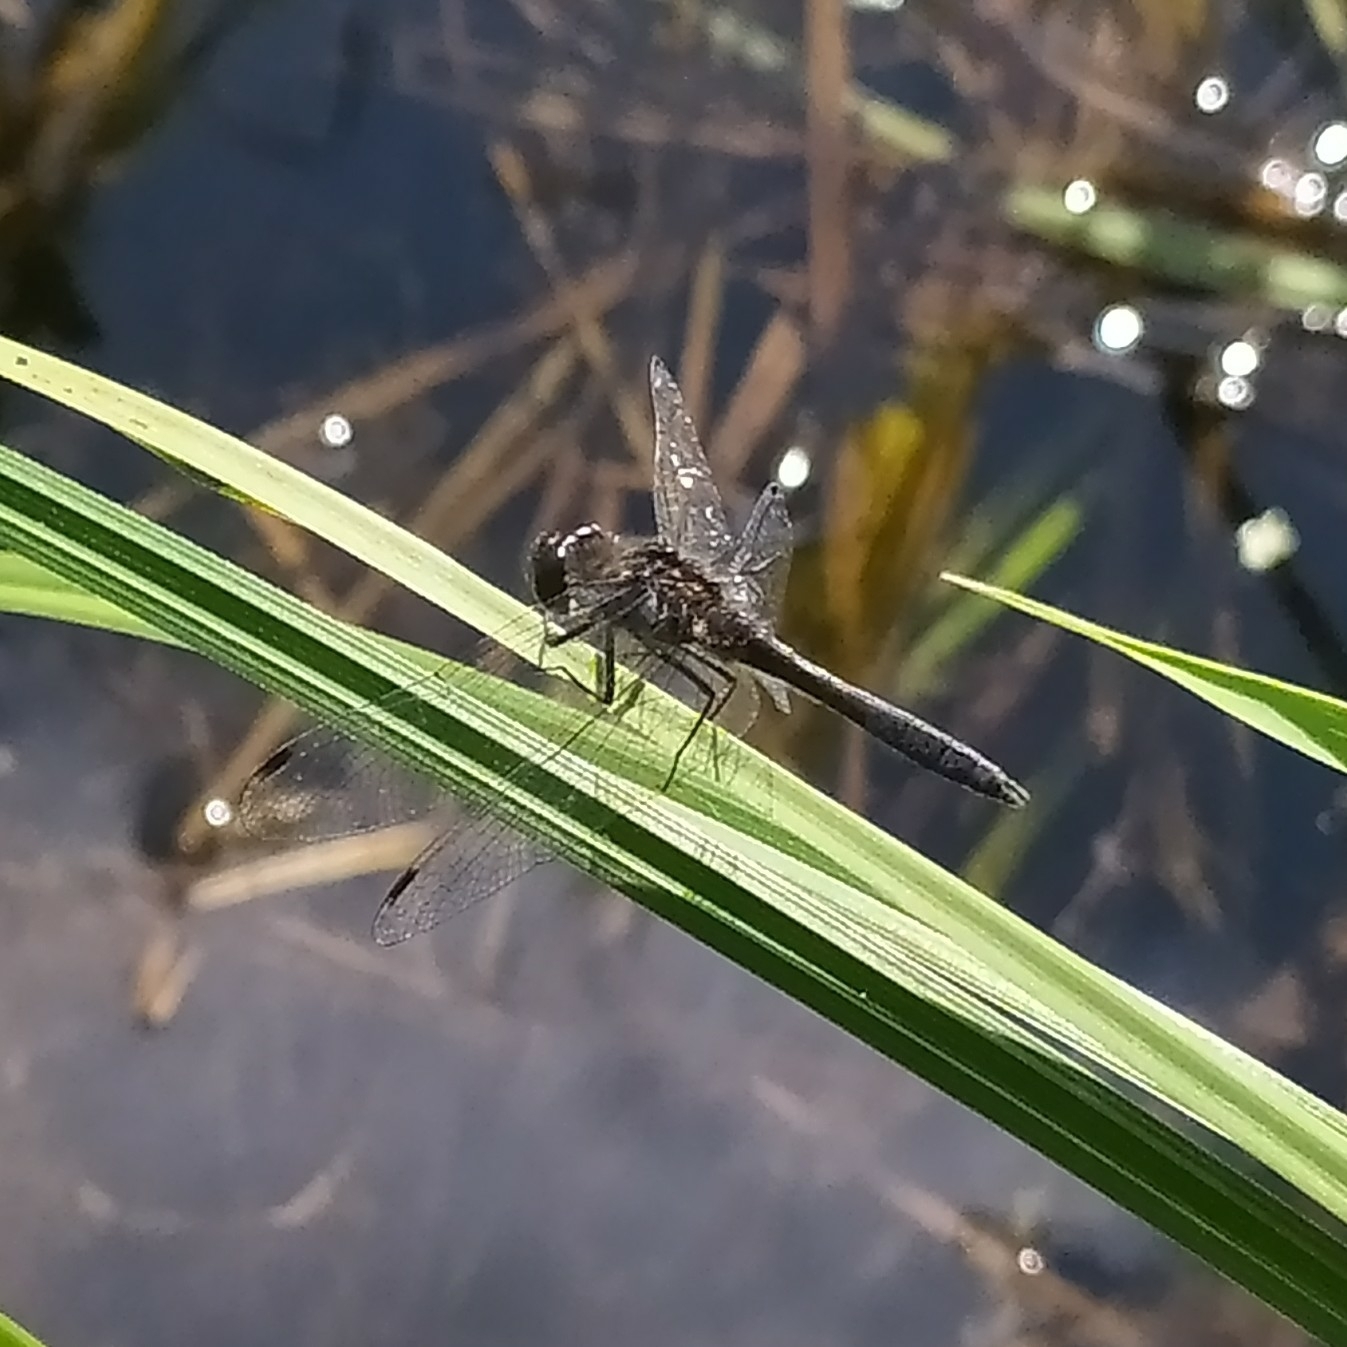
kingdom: Animalia
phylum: Arthropoda
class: Insecta
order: Odonata
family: Libellulidae
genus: Sympetrum
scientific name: Sympetrum danae
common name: Black darter
